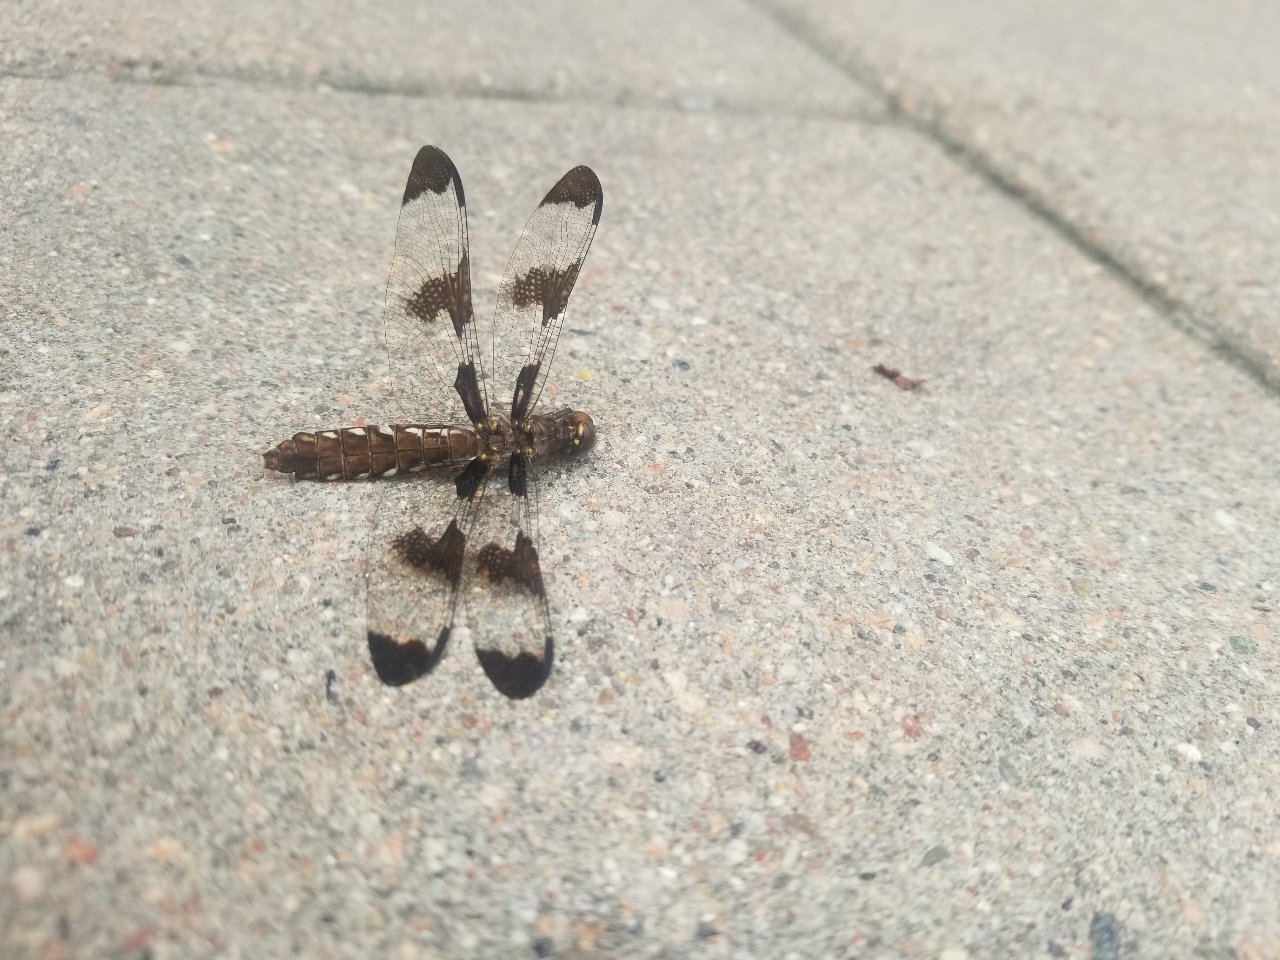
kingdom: Animalia
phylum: Arthropoda
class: Insecta
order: Odonata
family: Libellulidae
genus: Plathemis
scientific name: Plathemis lydia
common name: Common whitetail
